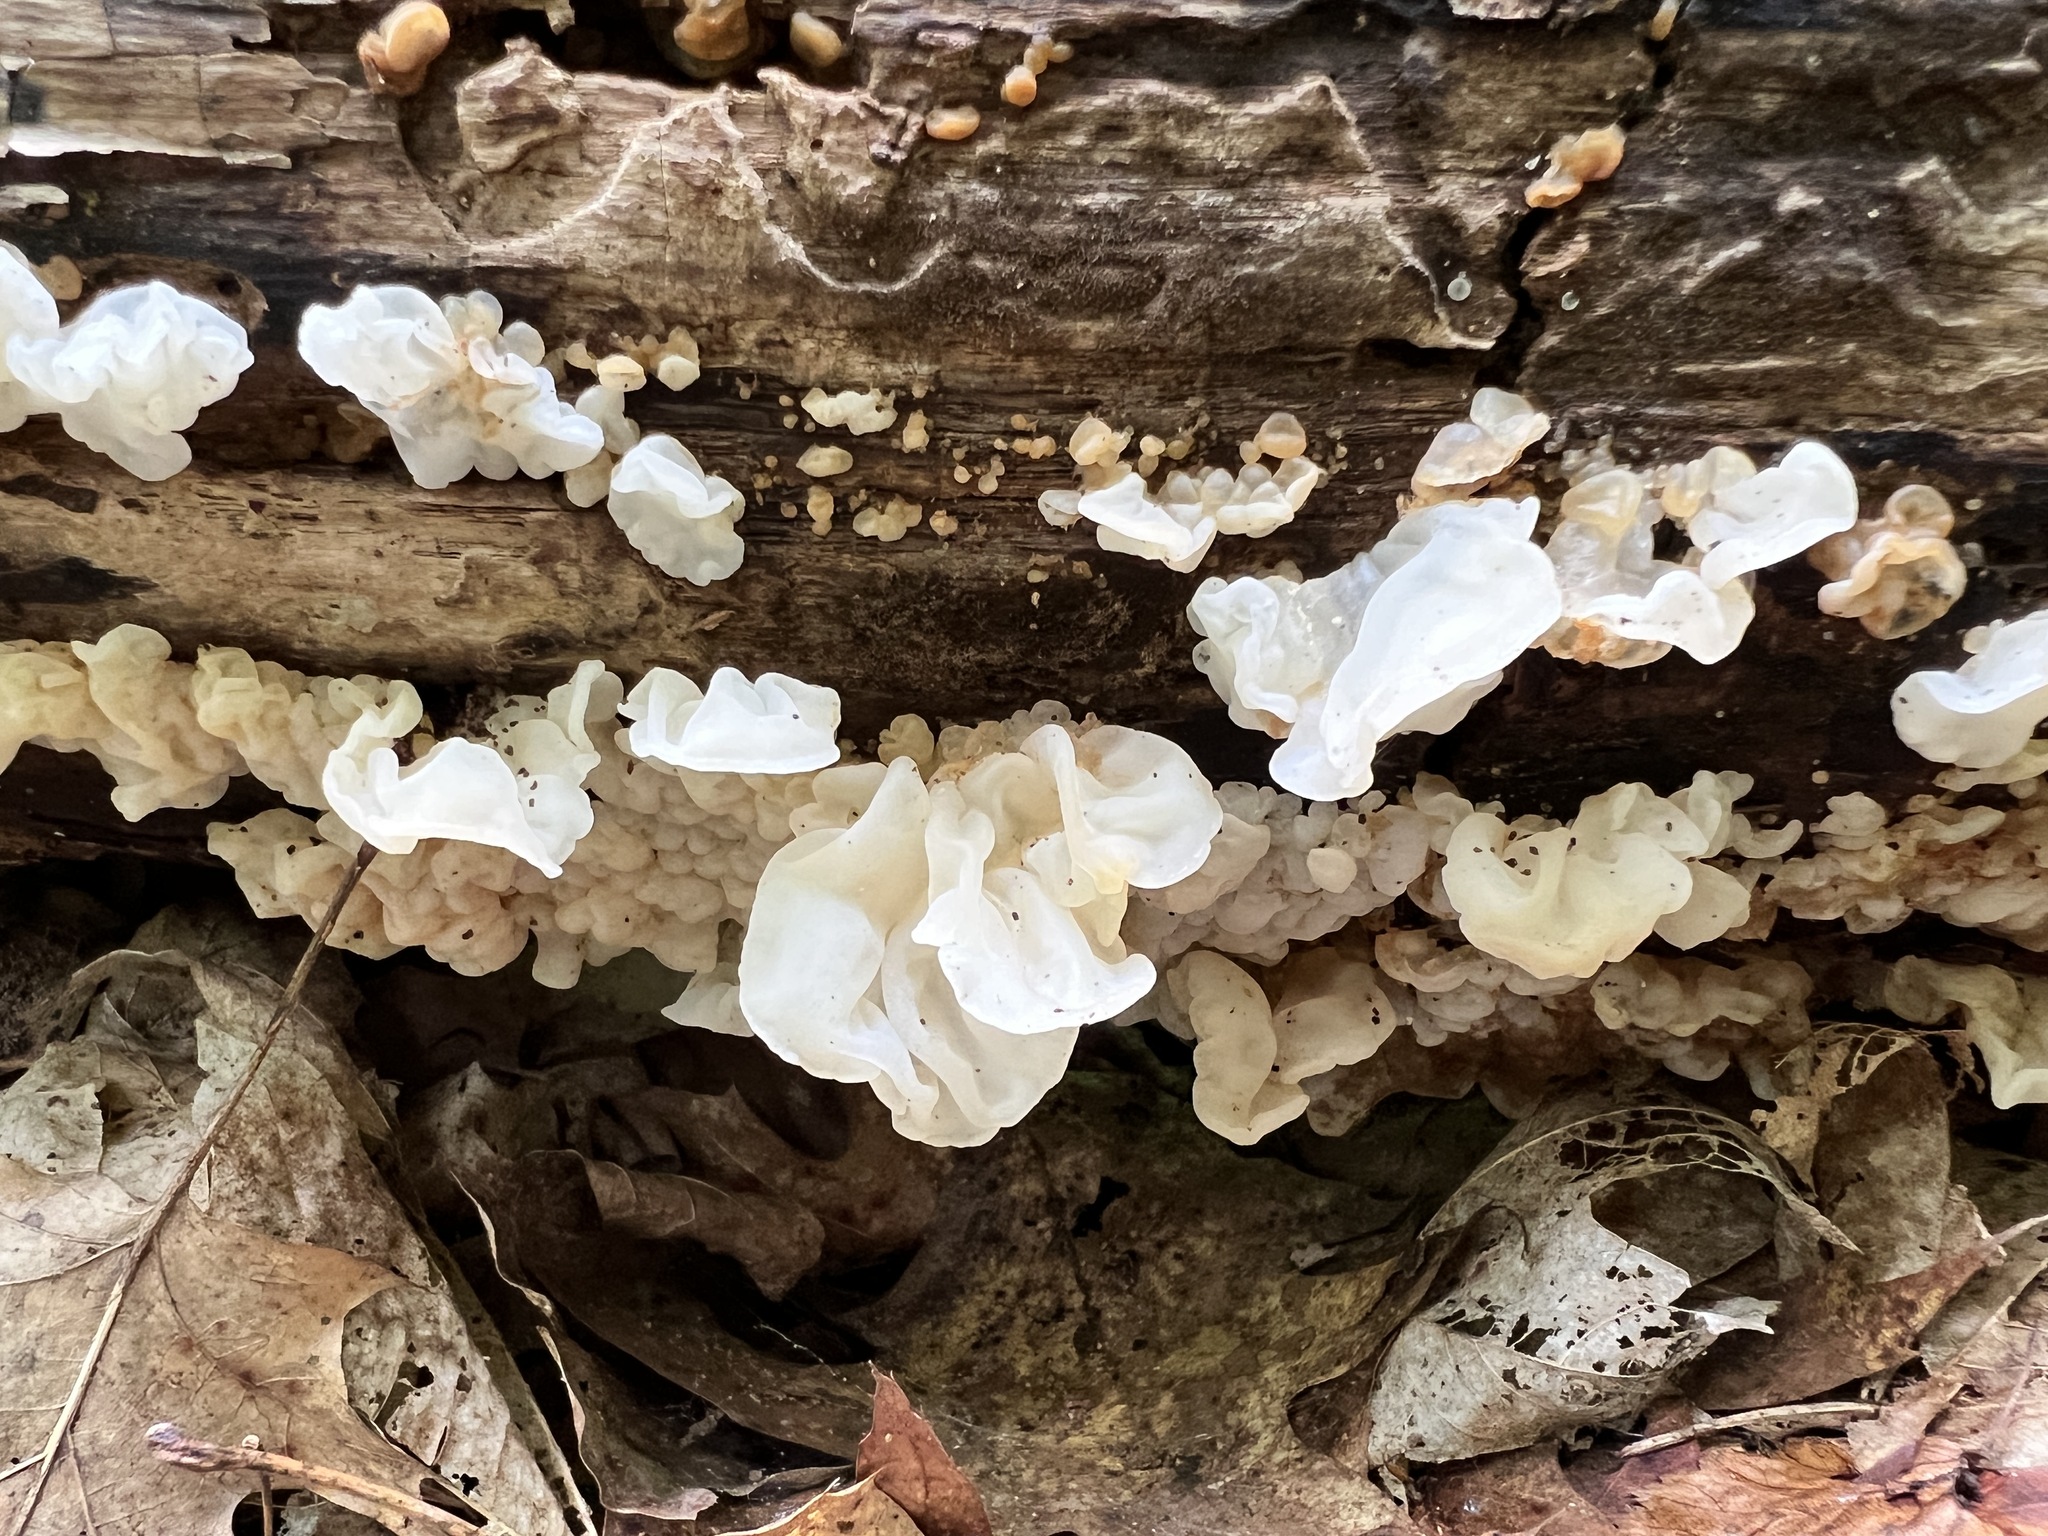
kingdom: Fungi
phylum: Basidiomycota
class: Agaricomycetes
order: Auriculariales
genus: Ductifera
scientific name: Ductifera pululahuana
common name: White jelly fungus
